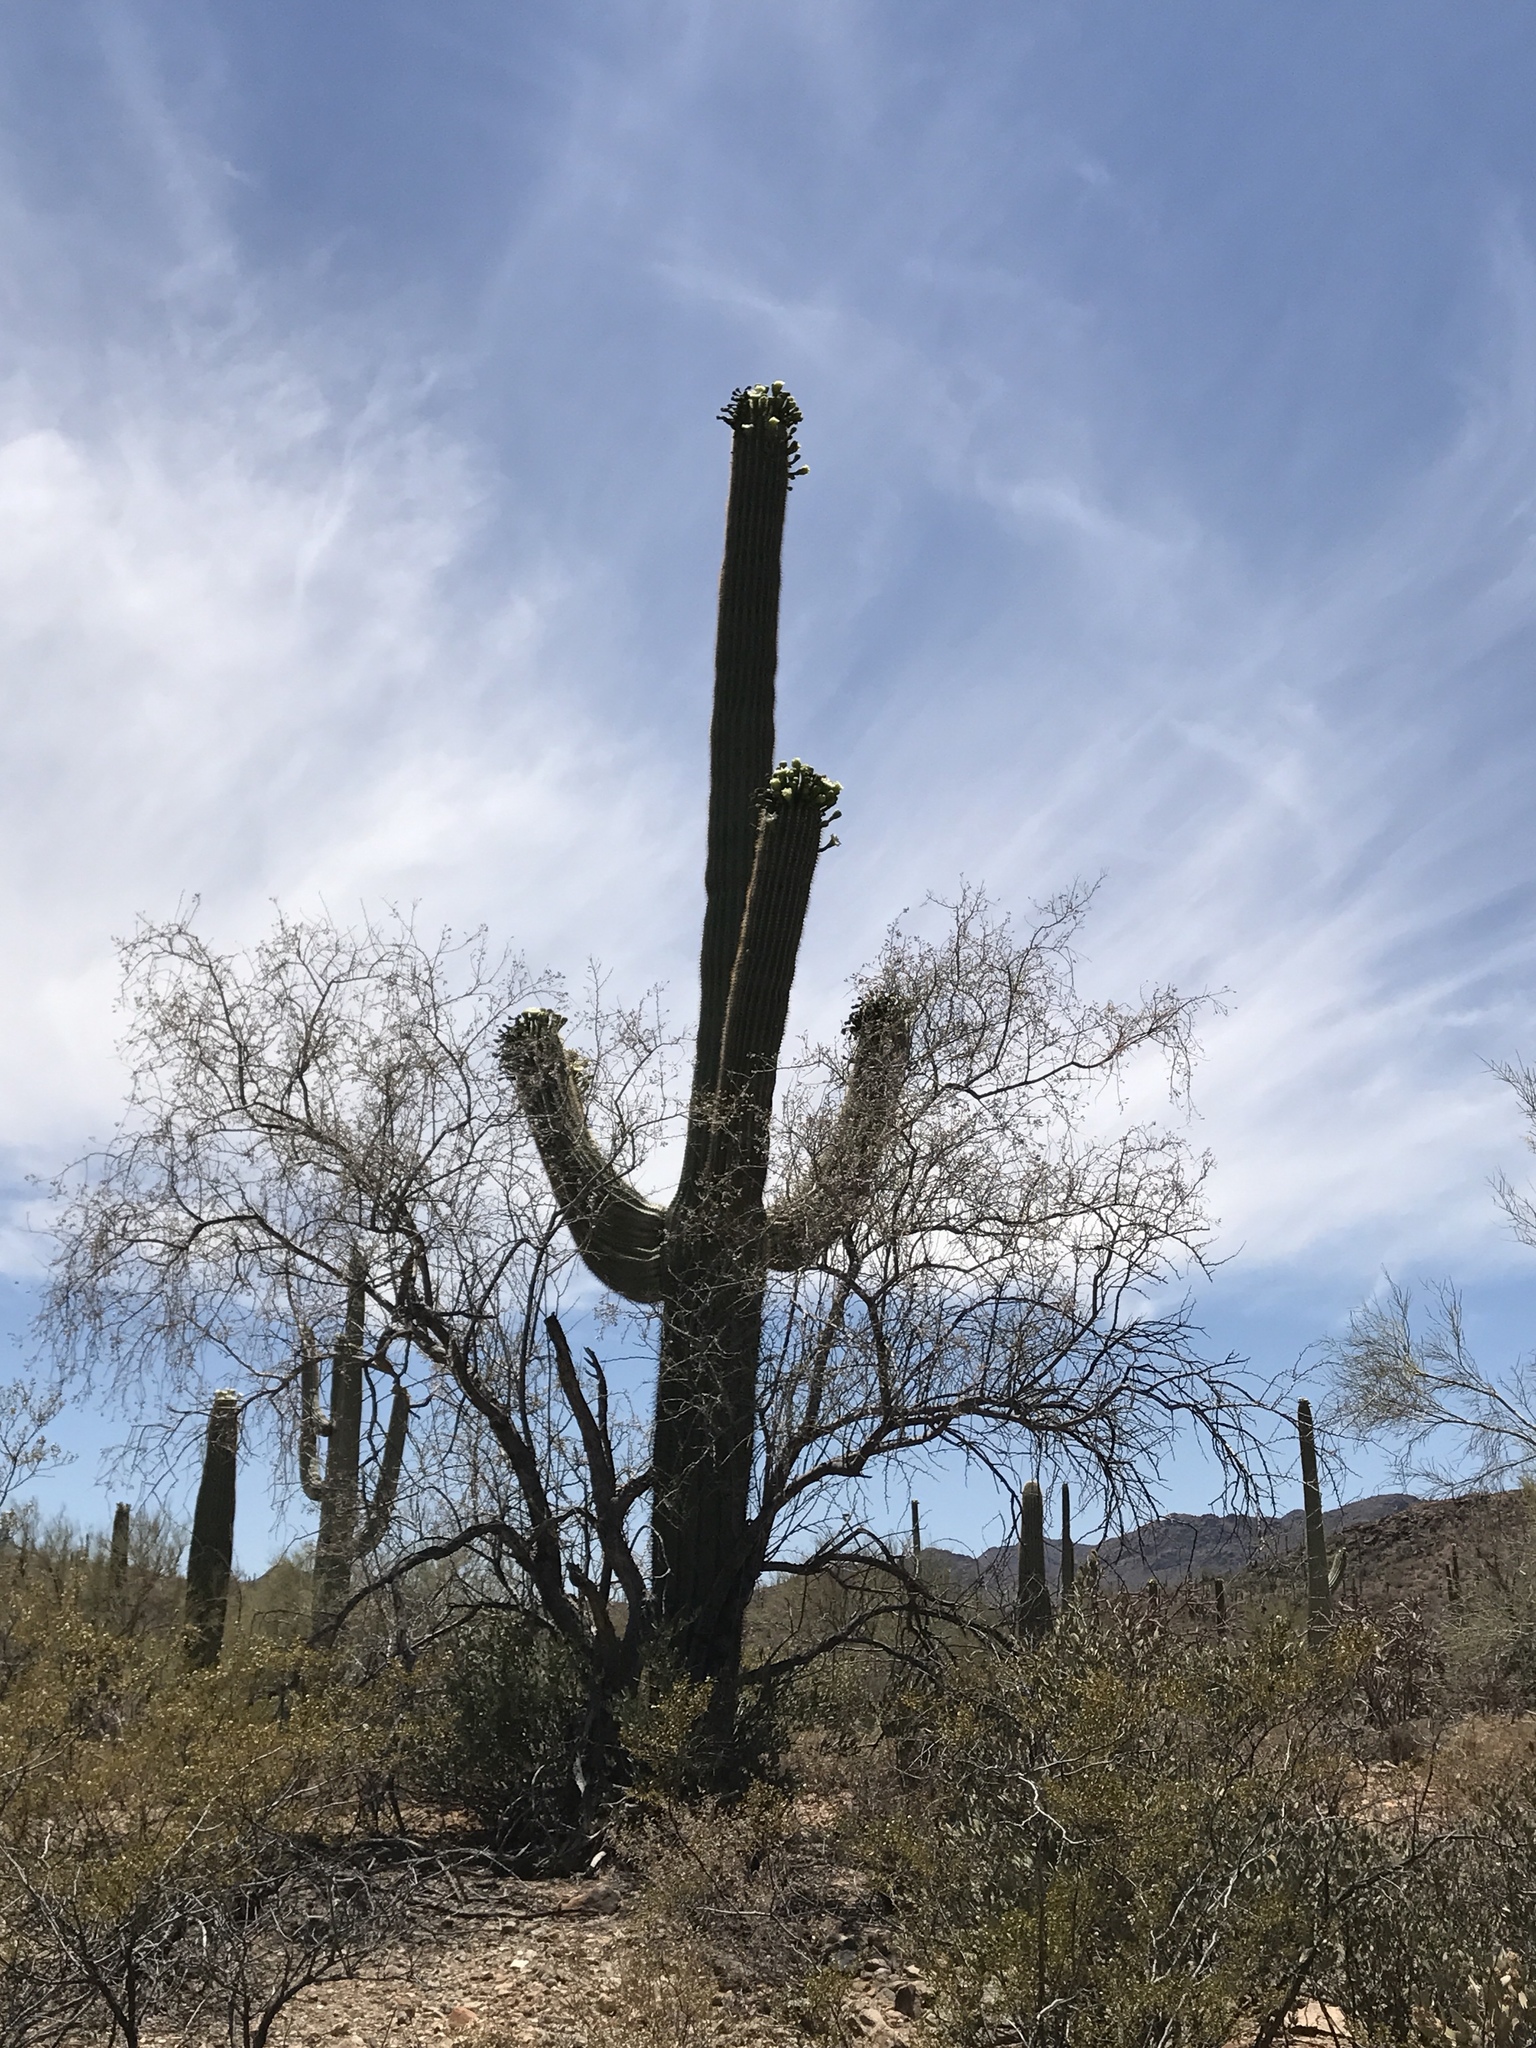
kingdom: Plantae
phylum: Tracheophyta
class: Magnoliopsida
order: Caryophyllales
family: Cactaceae
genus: Carnegiea
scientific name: Carnegiea gigantea
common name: Saguaro
